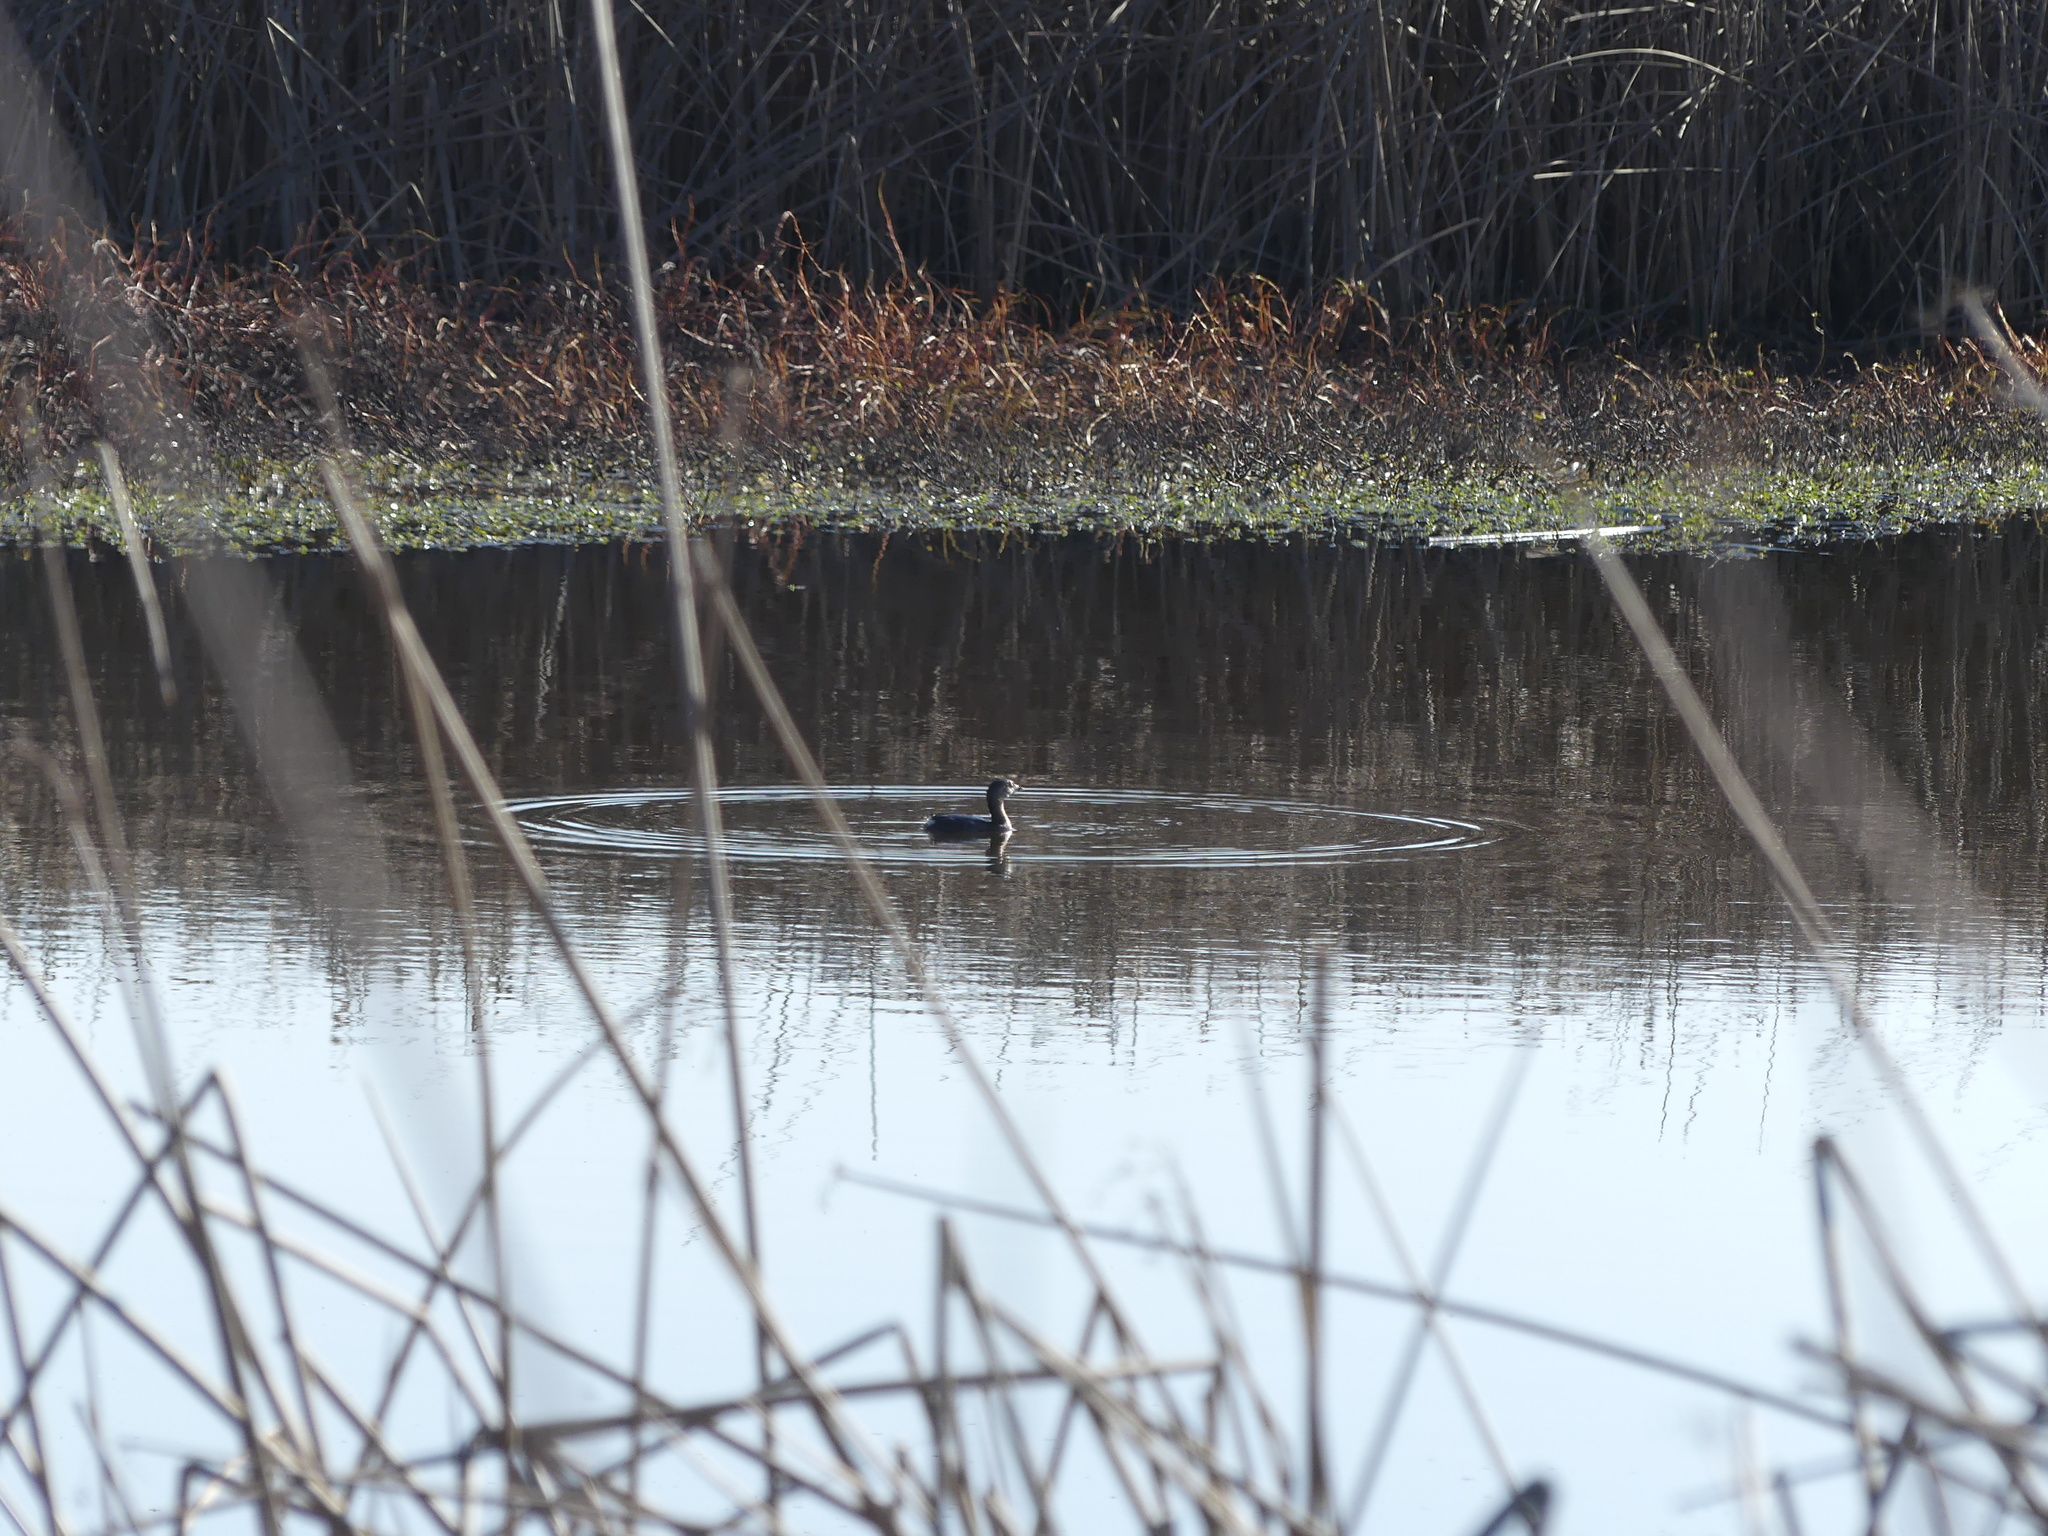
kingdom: Animalia
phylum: Chordata
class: Aves
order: Podicipediformes
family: Podicipedidae
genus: Podilymbus
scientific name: Podilymbus podiceps
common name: Pied-billed grebe
